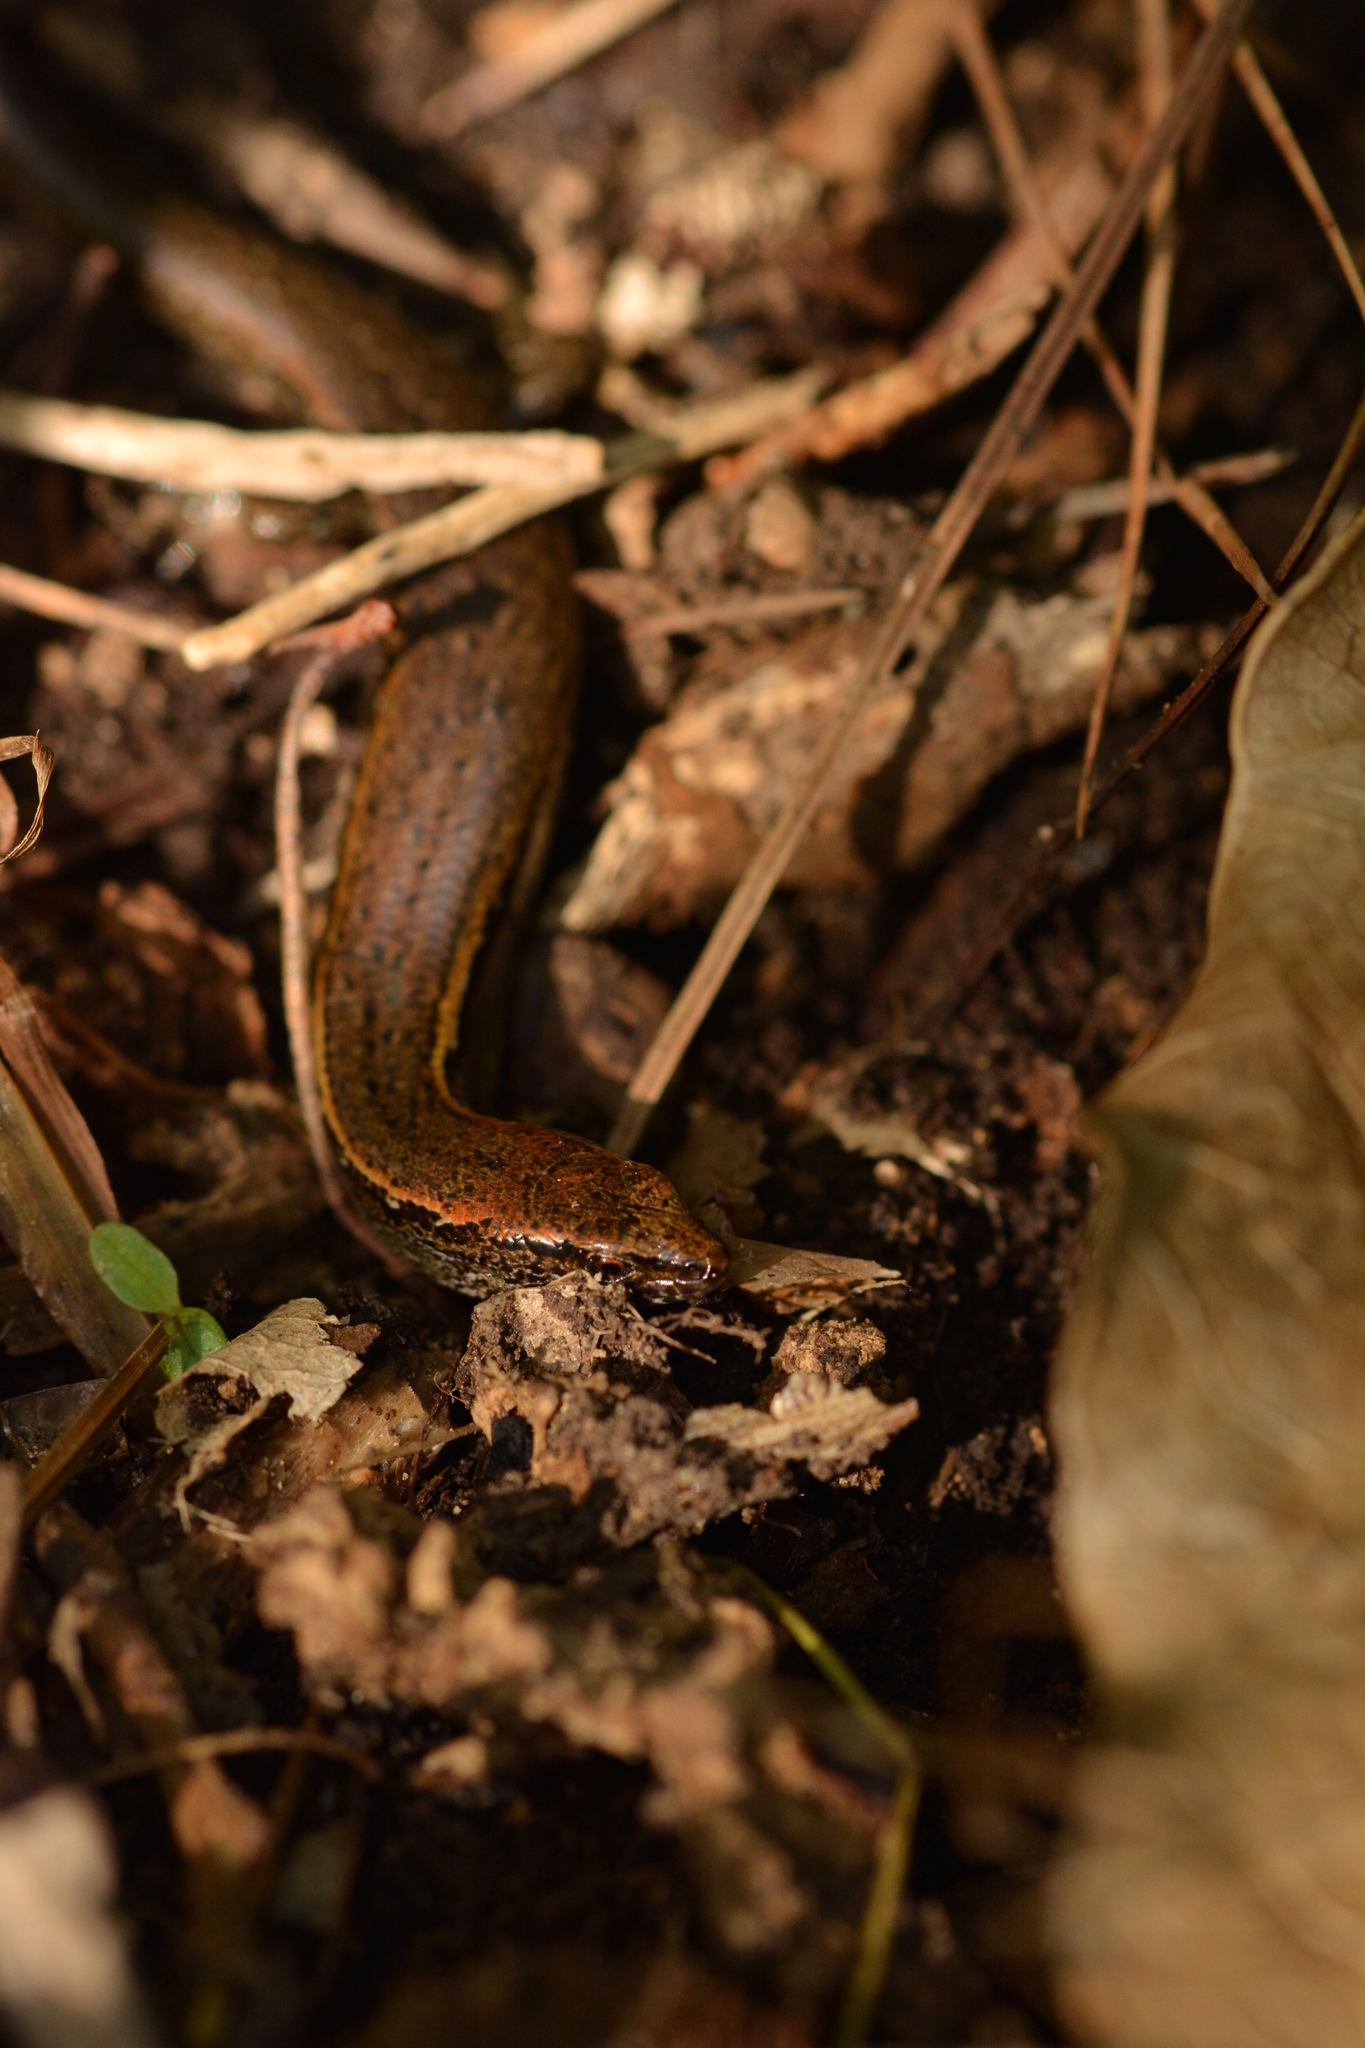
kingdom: Animalia
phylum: Chordata
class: Squamata
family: Scincidae
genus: Oligosoma
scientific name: Oligosoma aeneum
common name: Copper skink
